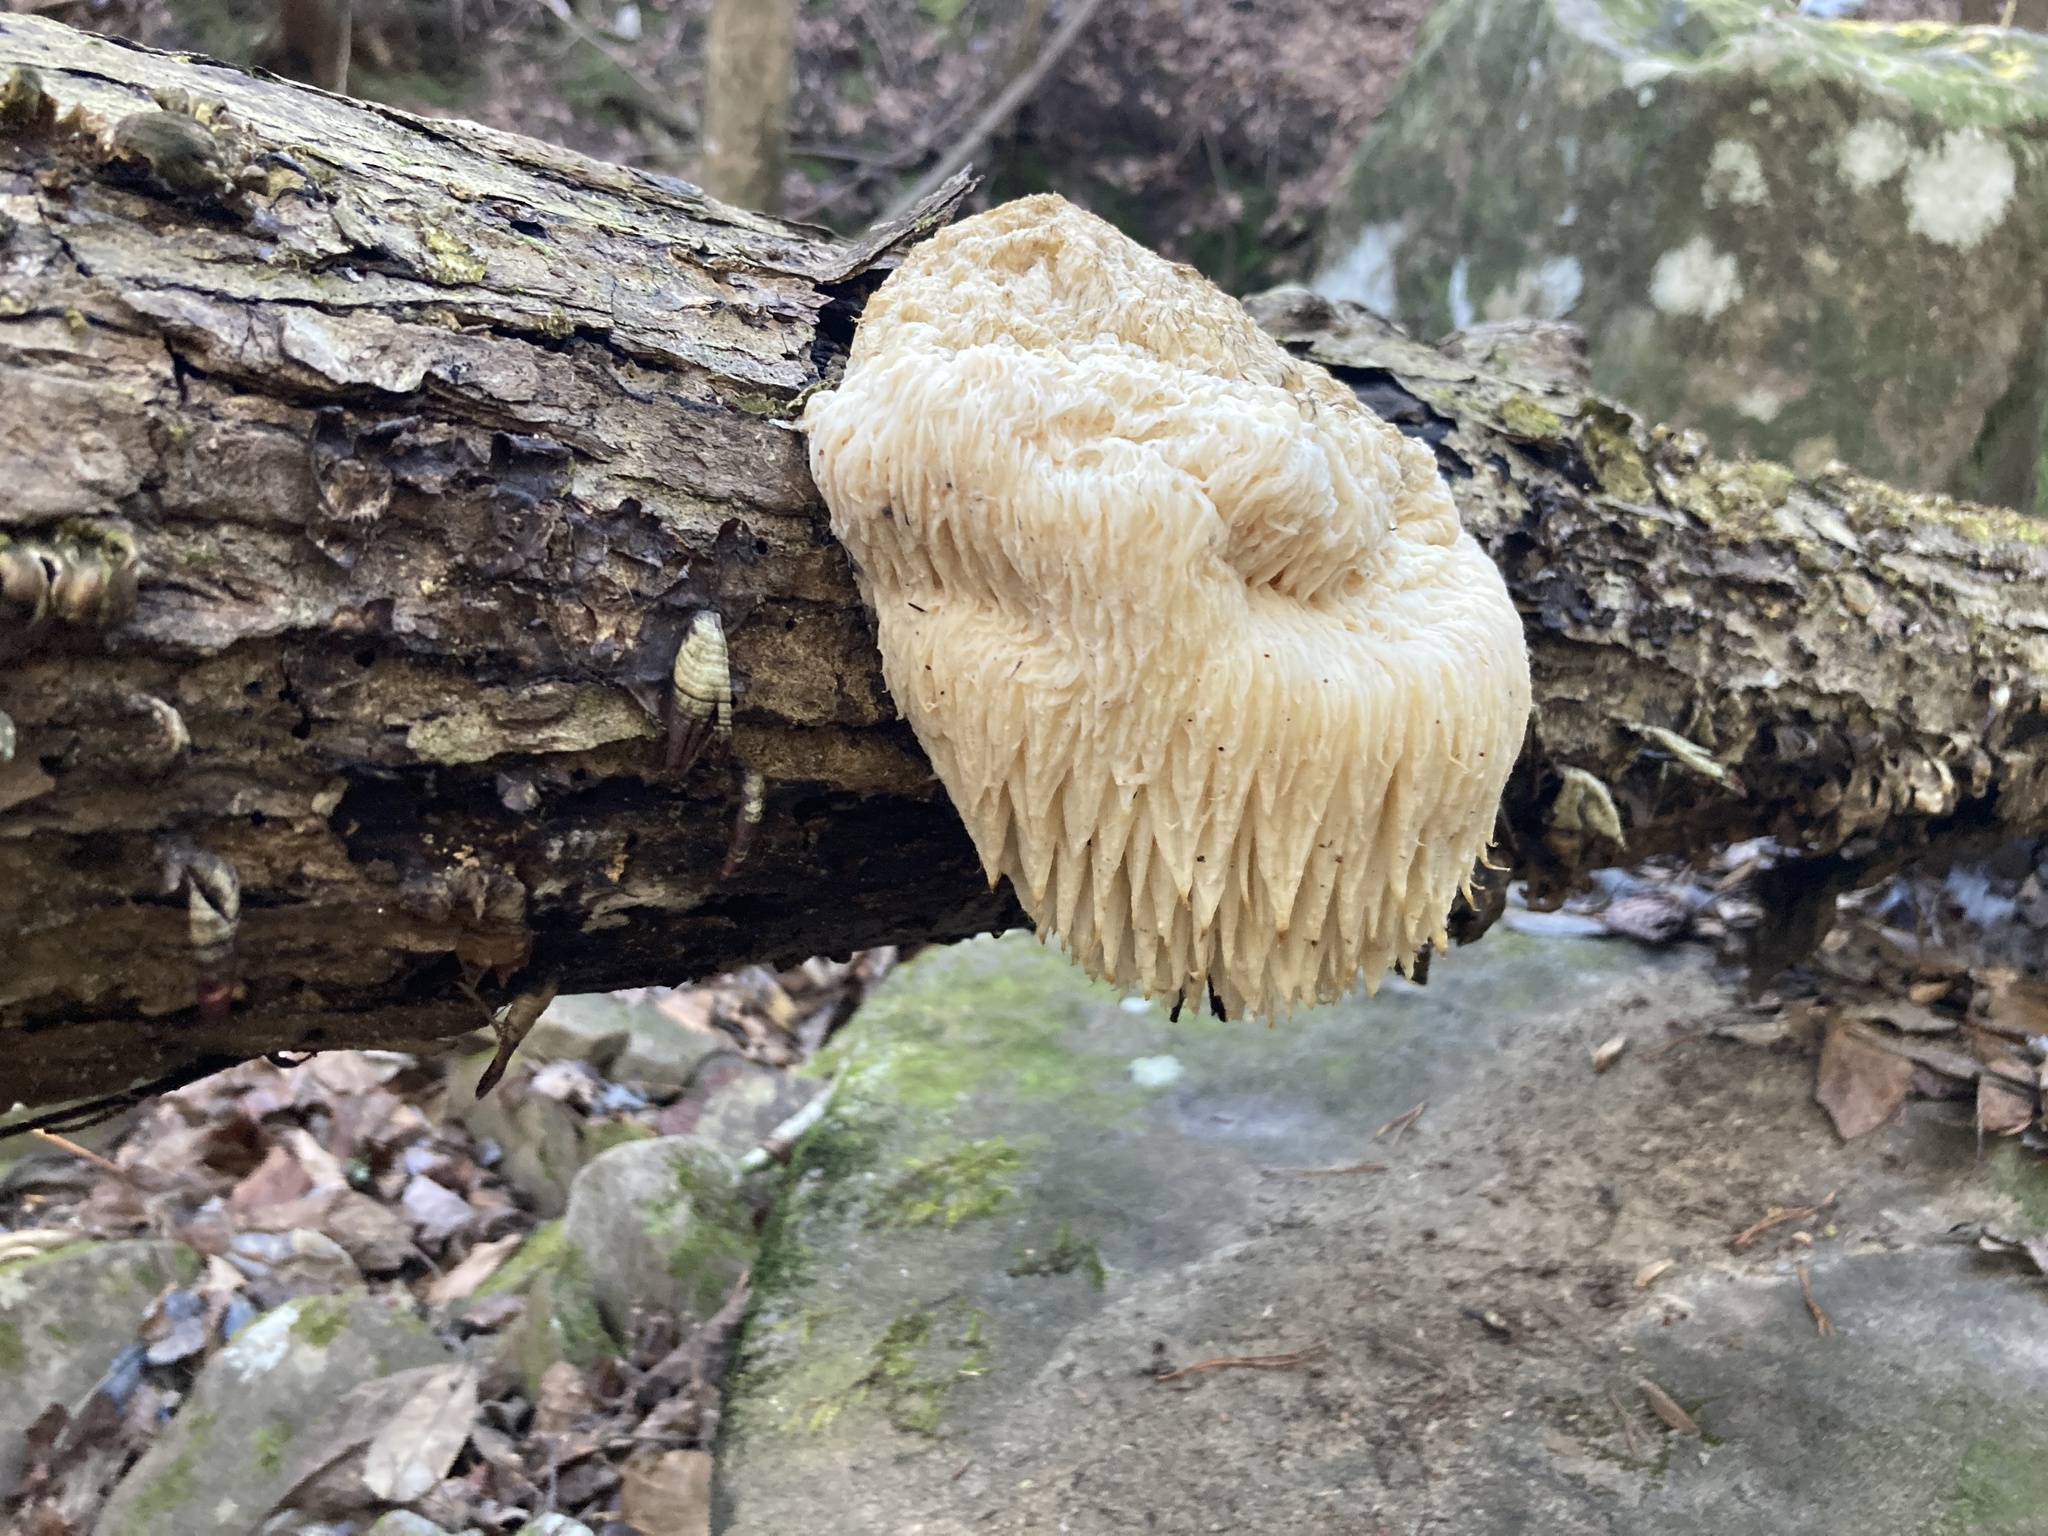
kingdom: Fungi
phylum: Basidiomycota
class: Agaricomycetes
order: Russulales
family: Hericiaceae
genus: Hericium
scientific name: Hericium erinaceus
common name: Bearded tooth
